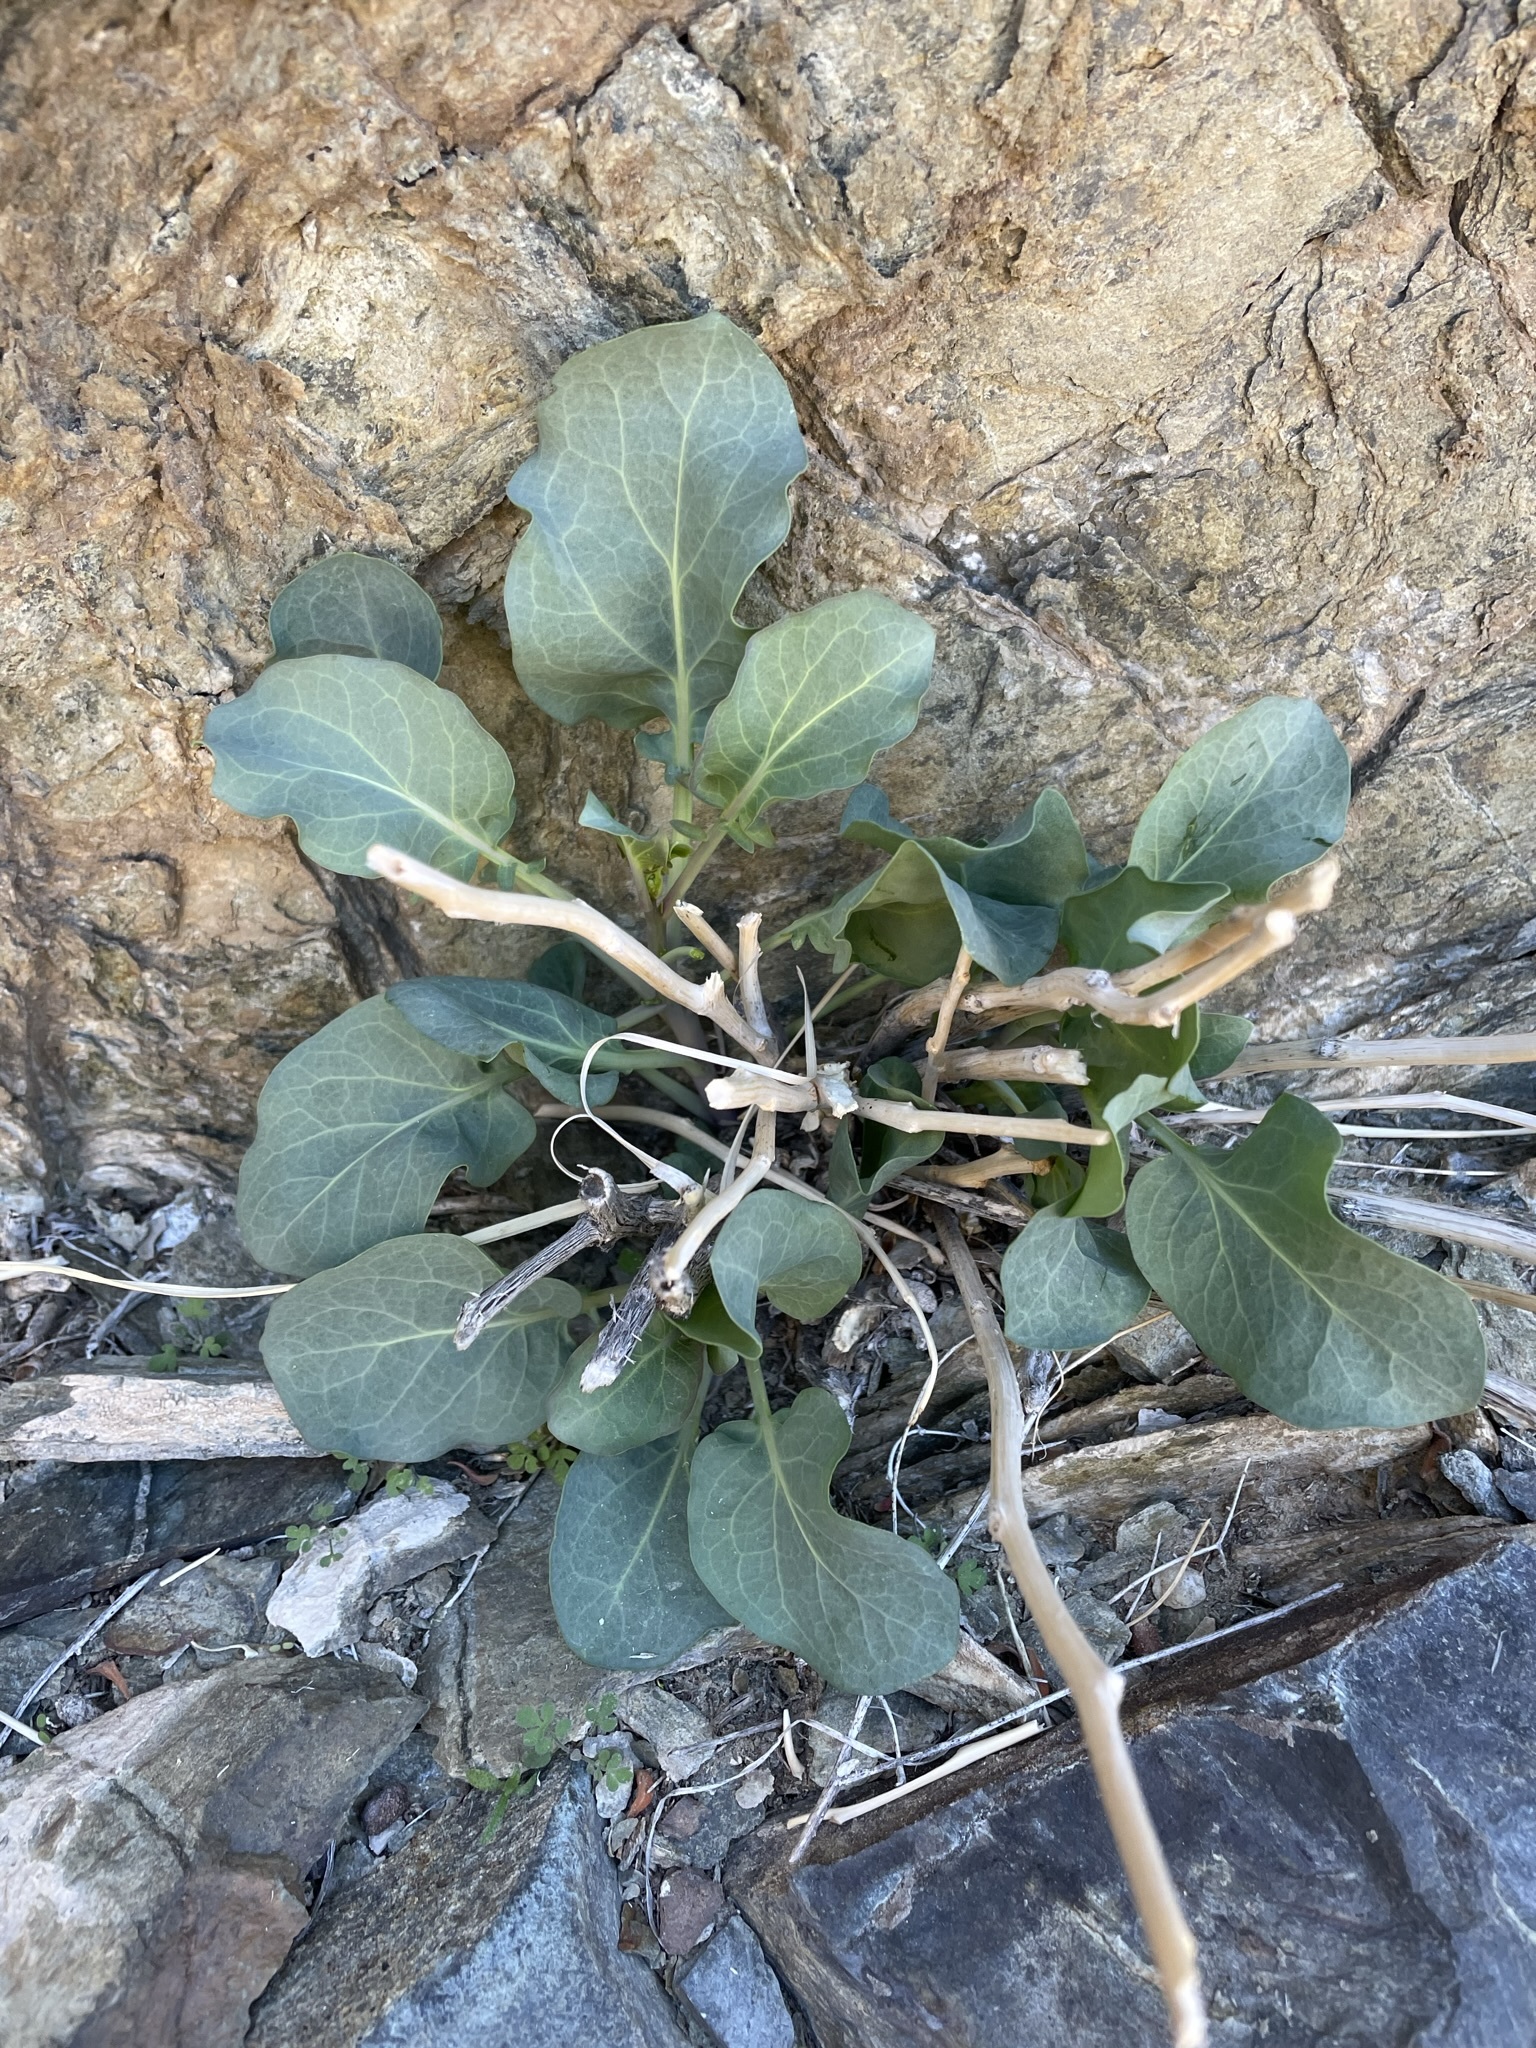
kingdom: Plantae
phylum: Tracheophyta
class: Magnoliopsida
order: Brassicales
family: Brassicaceae
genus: Streptanthus
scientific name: Streptanthus glaucus
